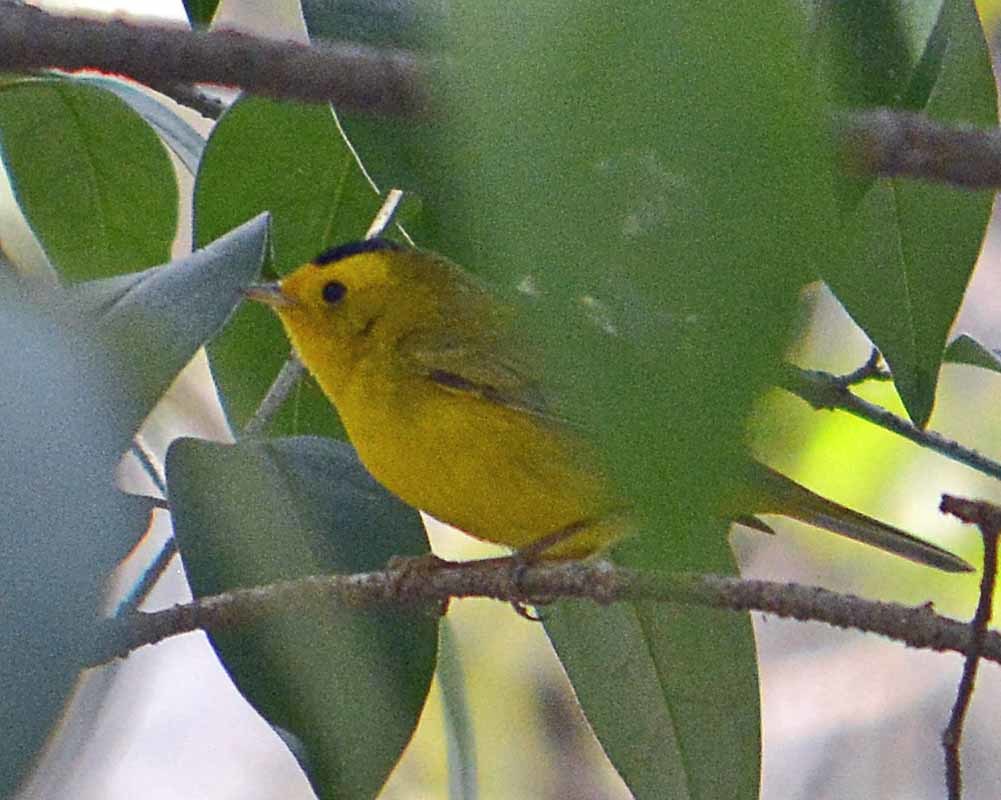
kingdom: Animalia
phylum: Chordata
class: Aves
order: Passeriformes
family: Parulidae
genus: Cardellina
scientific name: Cardellina pusilla
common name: Wilson's warbler
